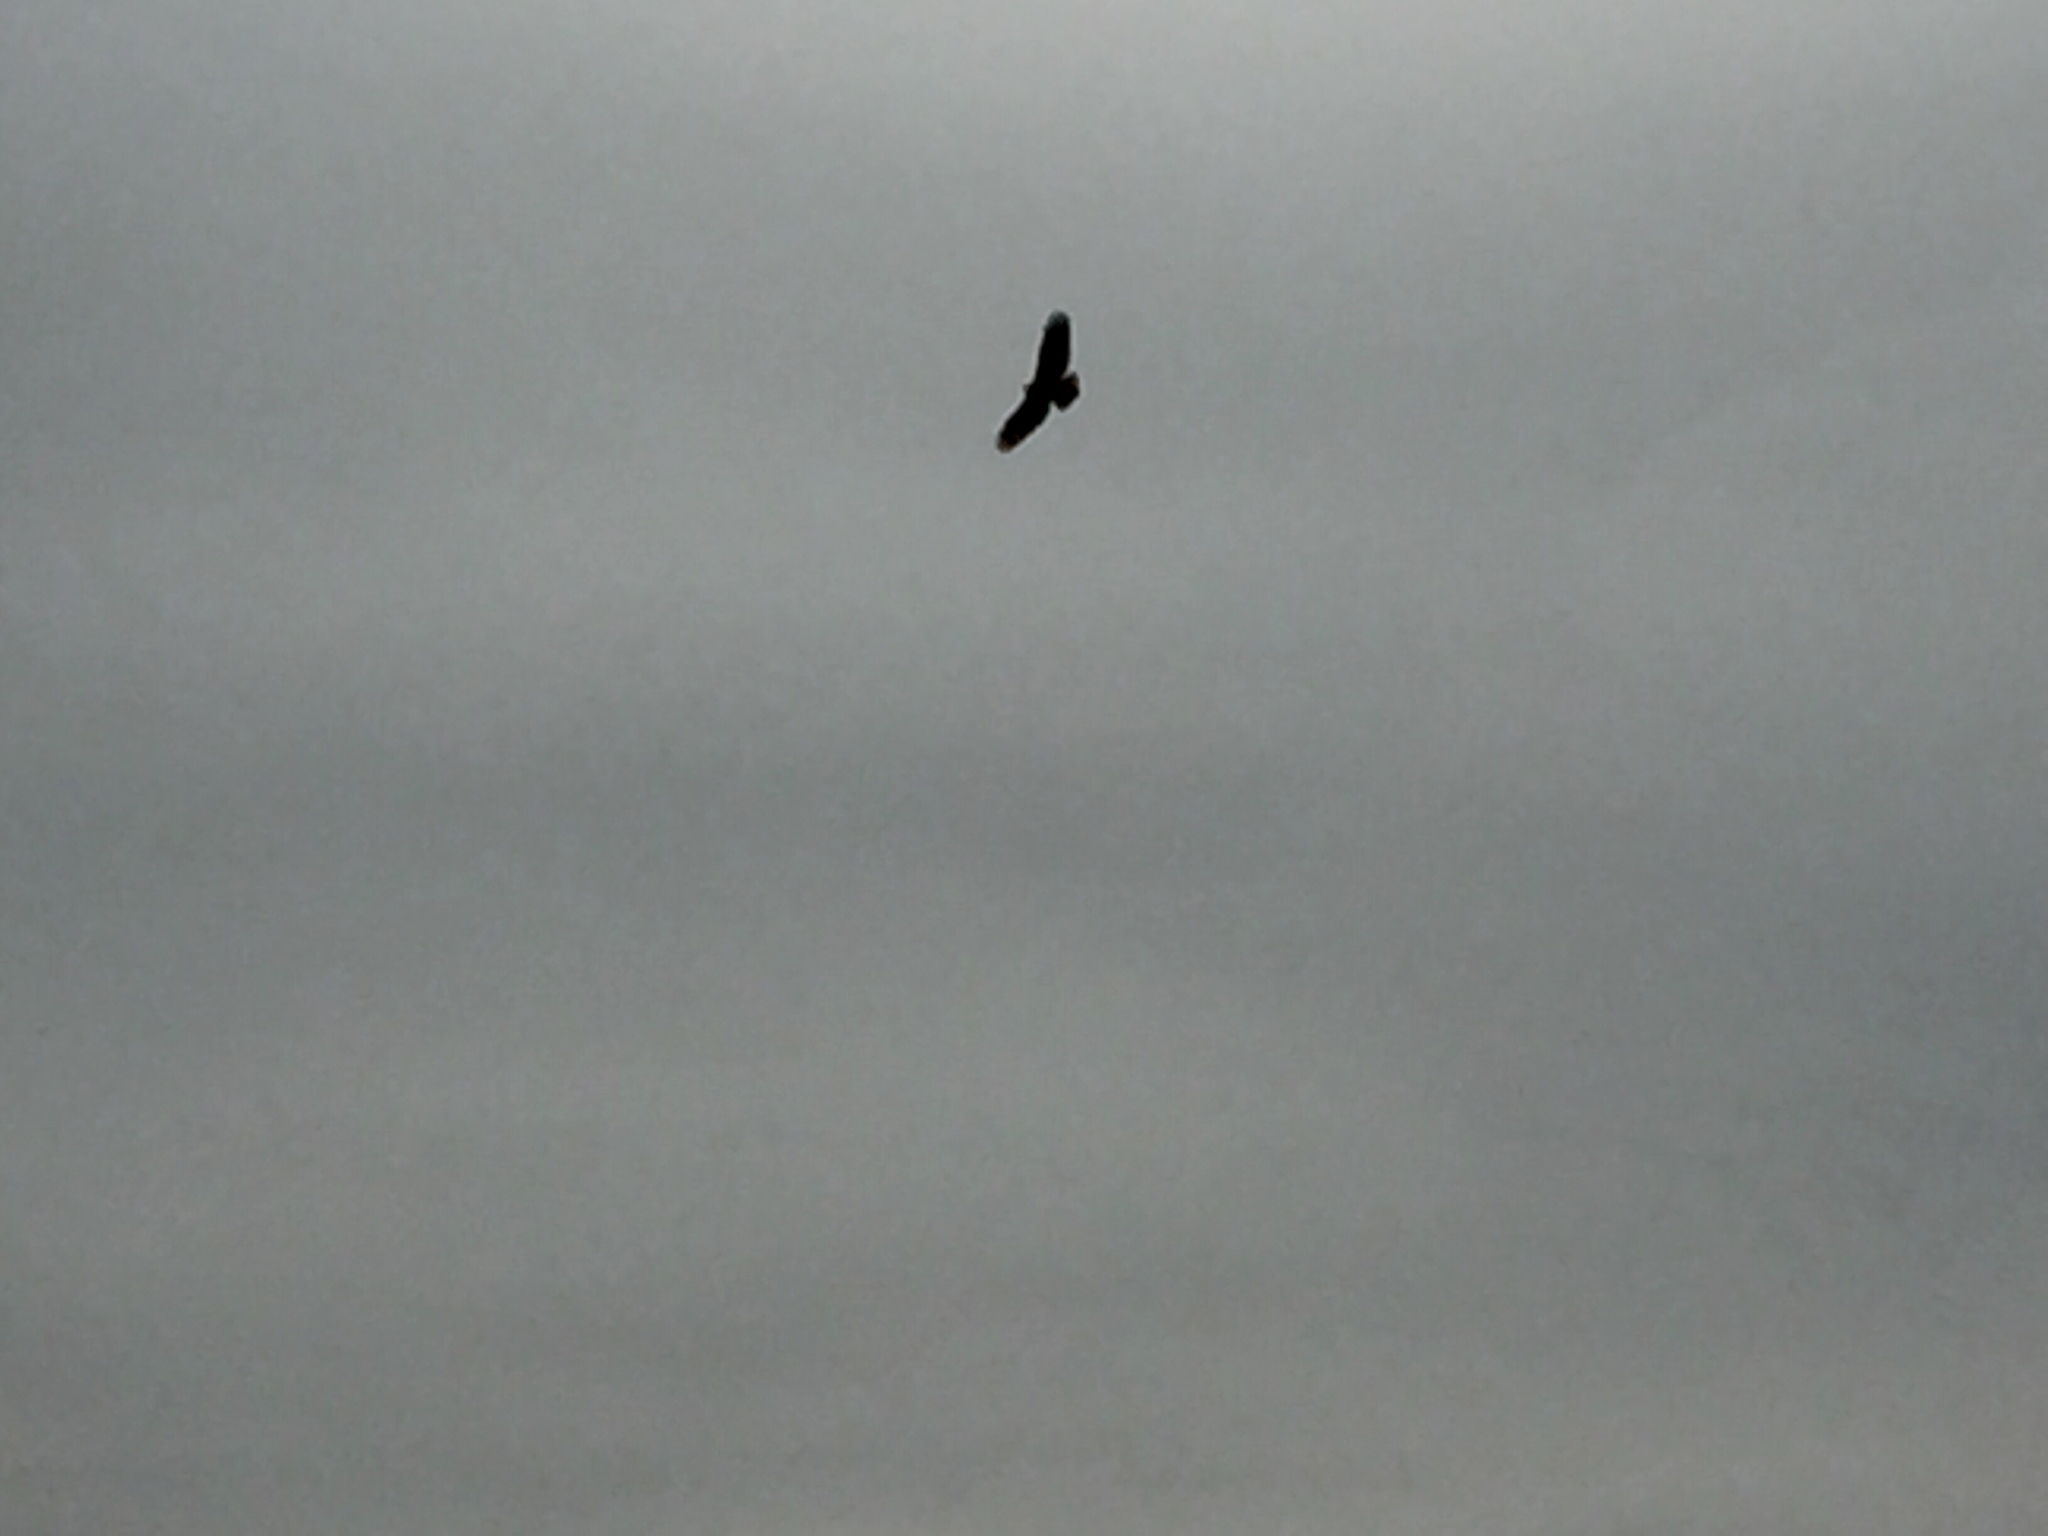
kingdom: Animalia
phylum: Chordata
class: Aves
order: Accipitriformes
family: Accipitridae
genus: Buteo
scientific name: Buteo jamaicensis
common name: Red-tailed hawk
